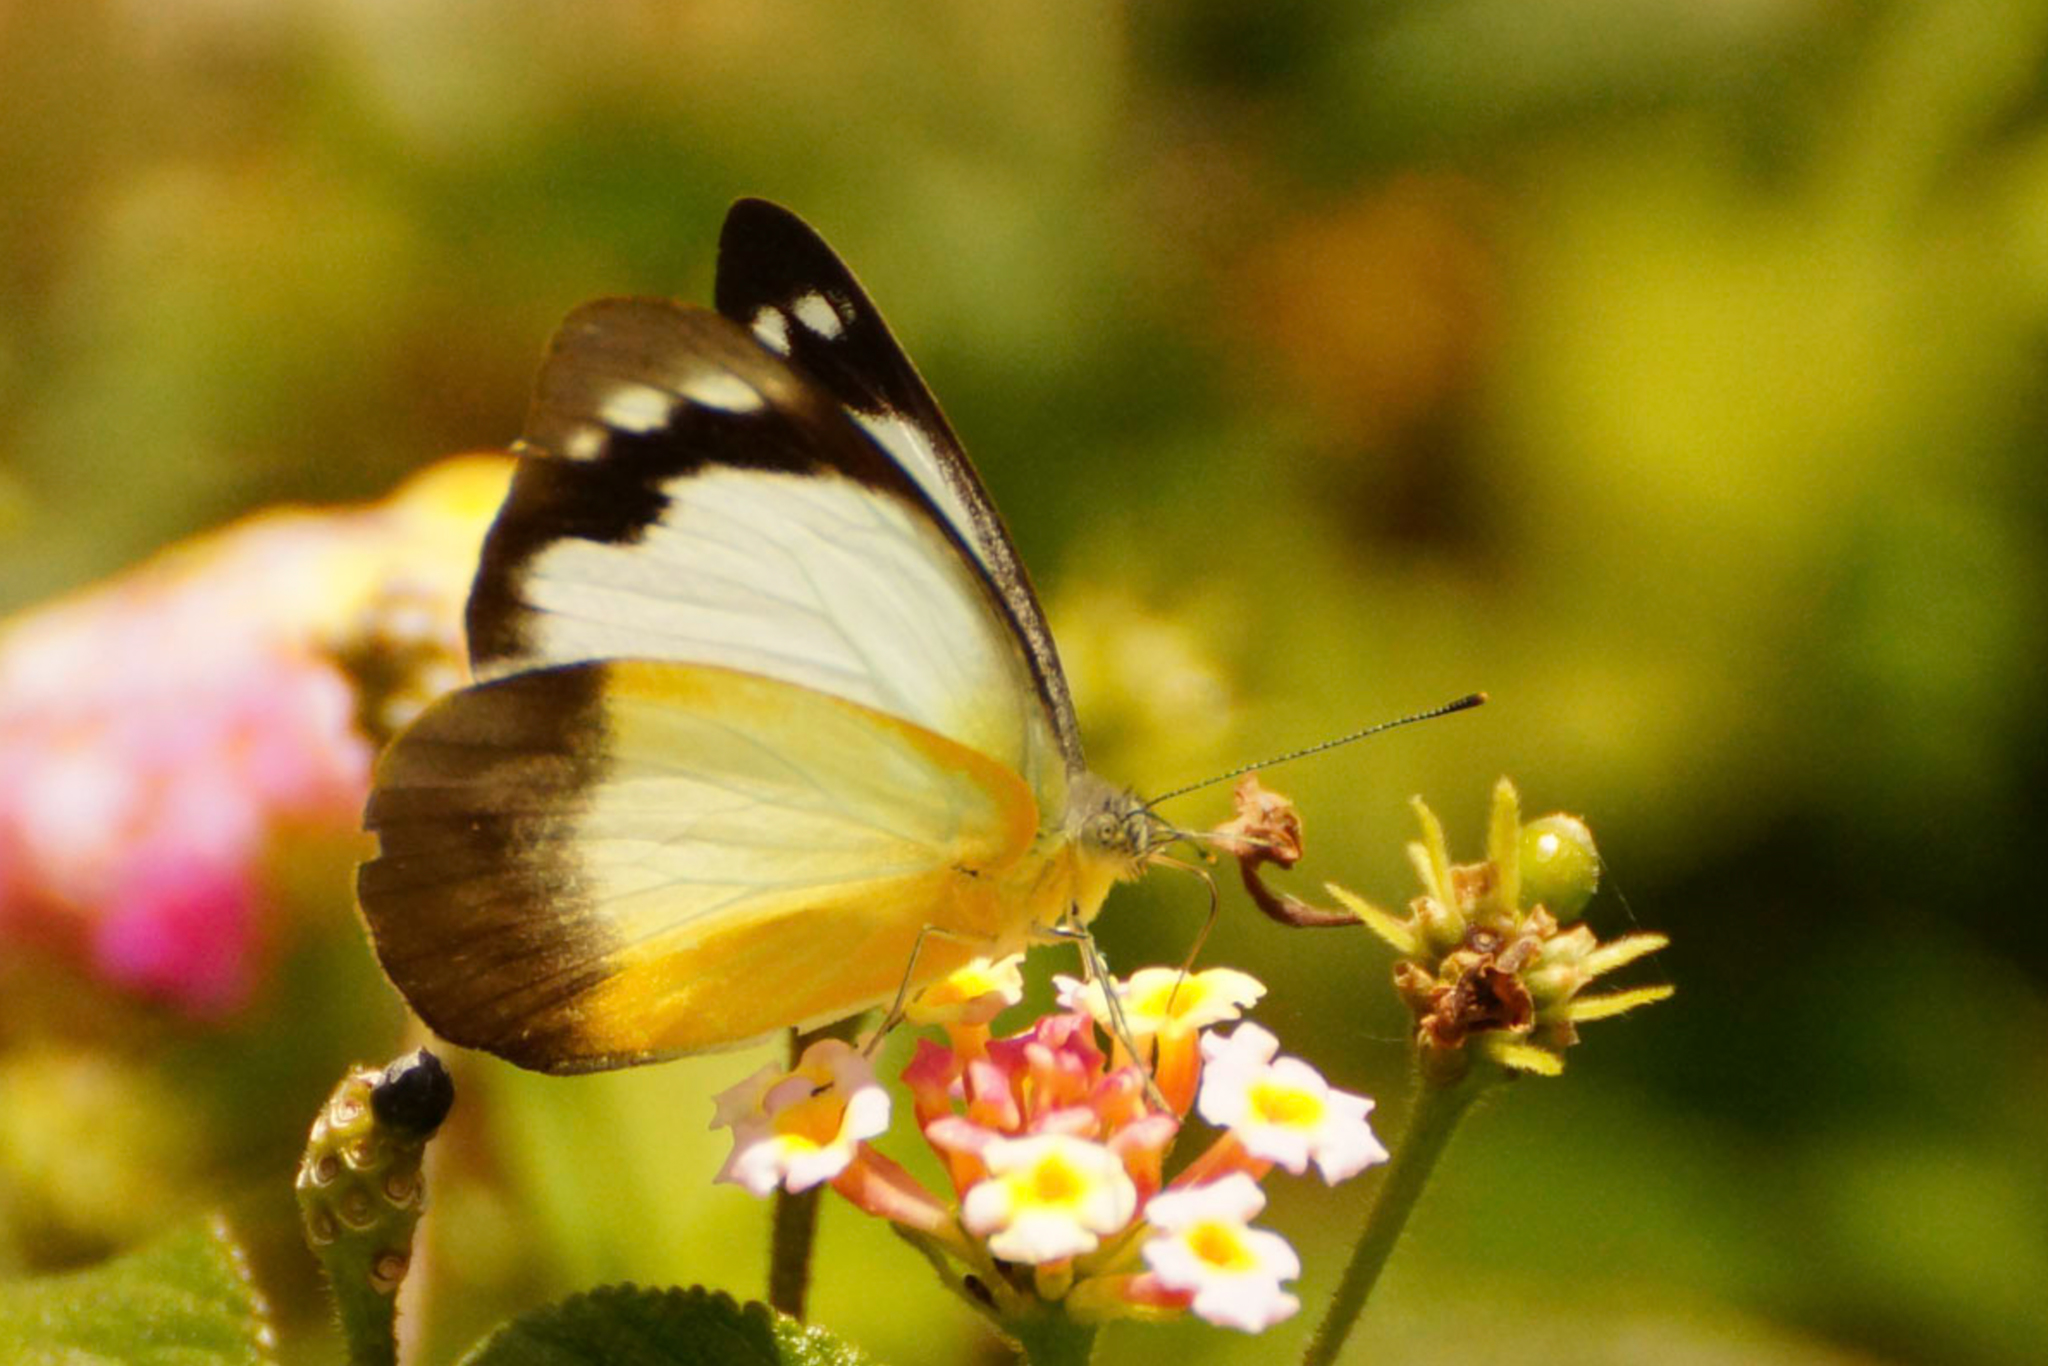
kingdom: Animalia
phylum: Arthropoda
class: Insecta
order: Lepidoptera
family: Pieridae
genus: Appias
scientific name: Appias paulina
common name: Ceylon lesser albatross
